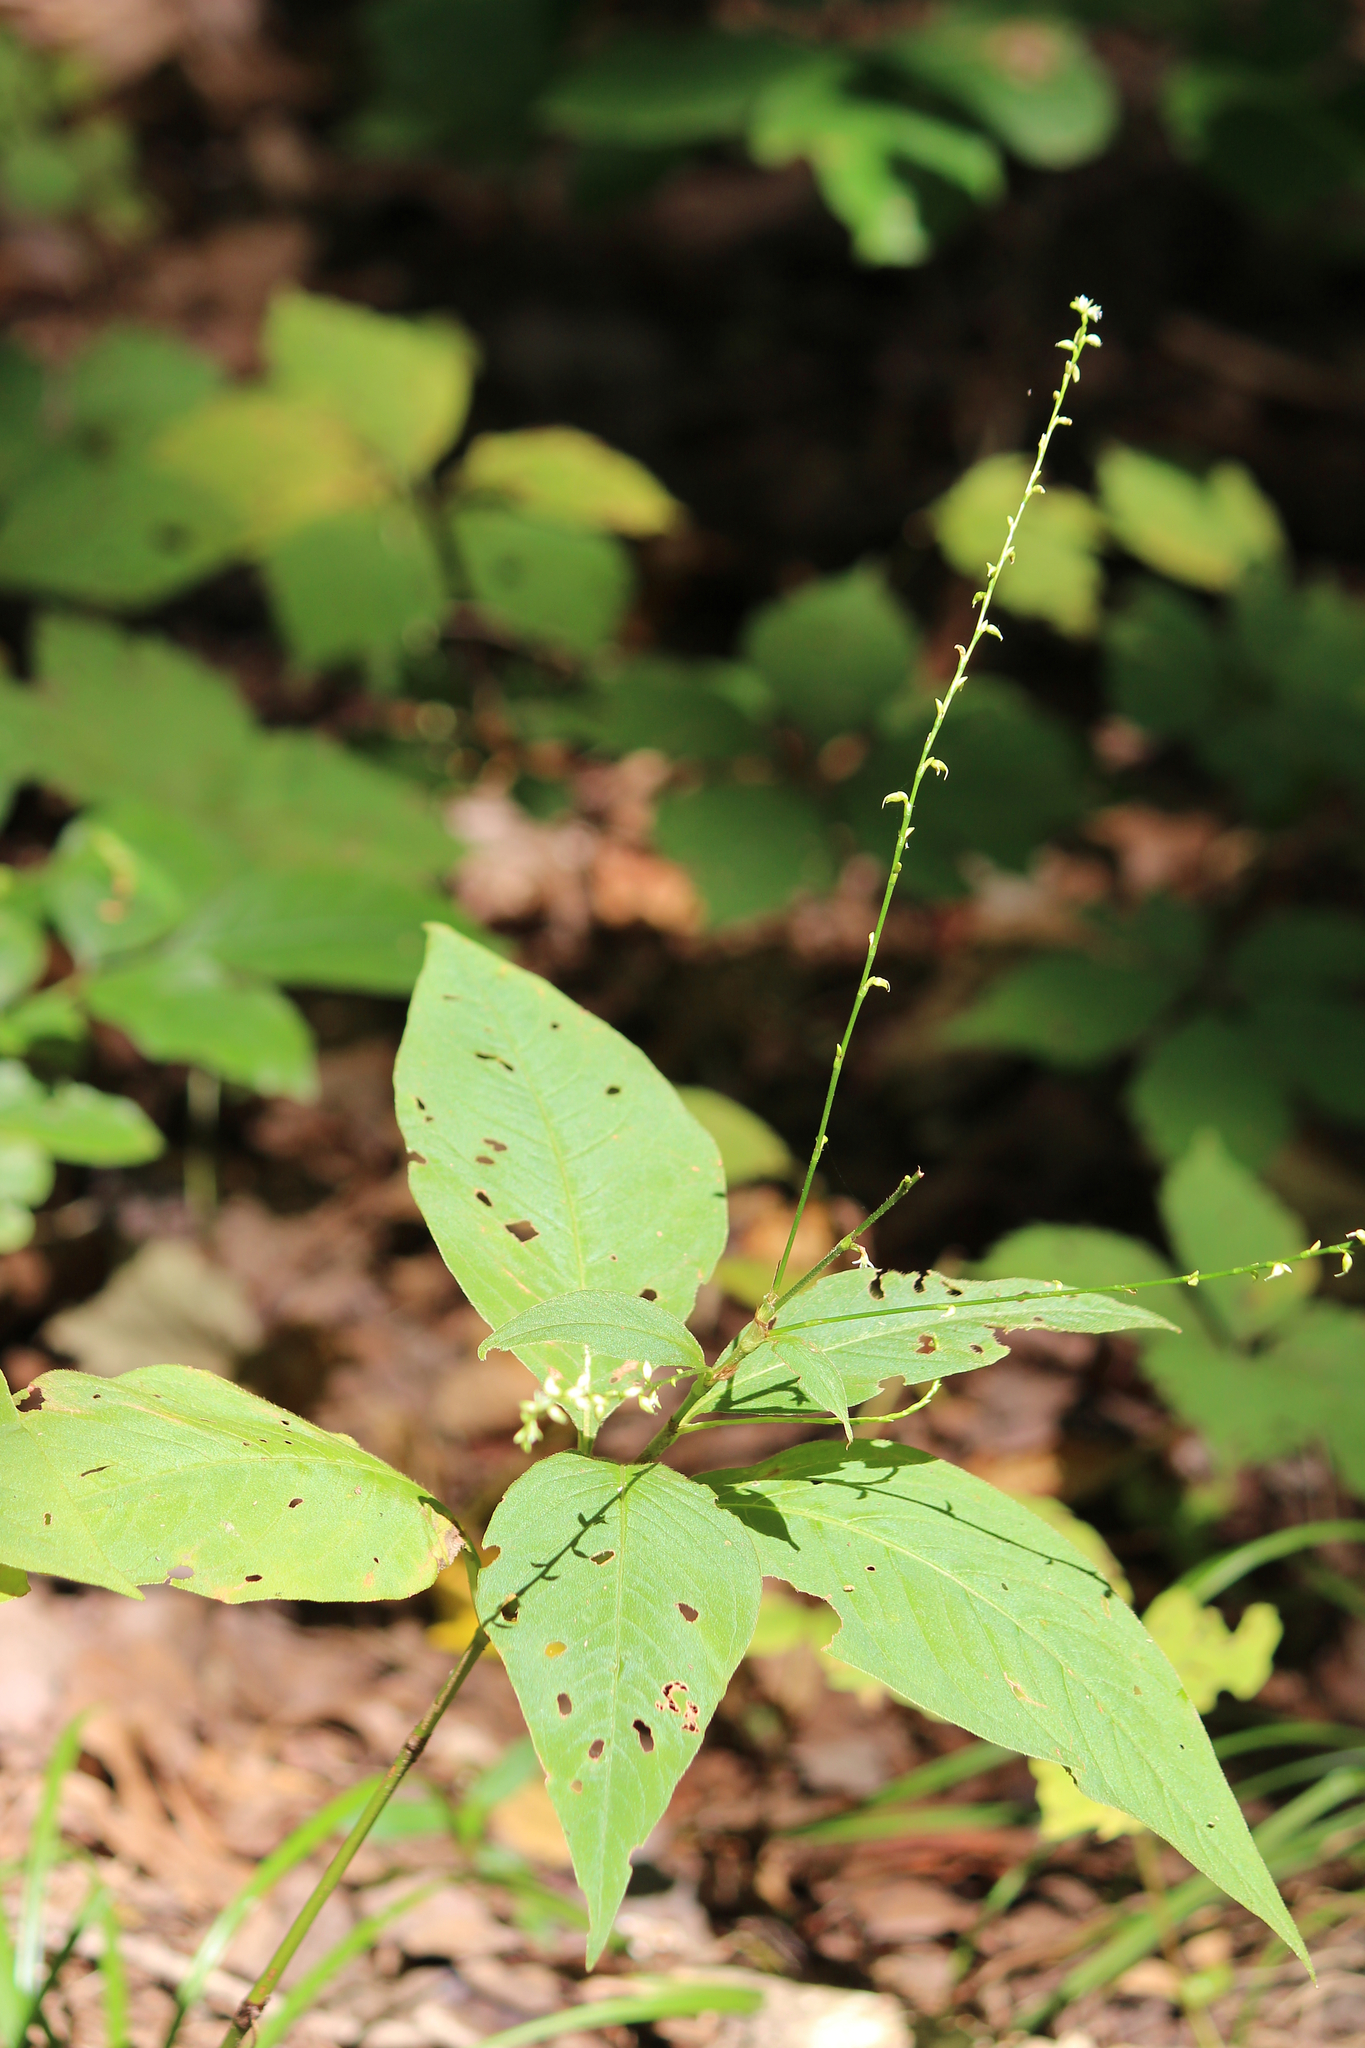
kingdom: Plantae
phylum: Tracheophyta
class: Magnoliopsida
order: Caryophyllales
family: Polygonaceae
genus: Persicaria
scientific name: Persicaria virginiana
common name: Jumpseed
